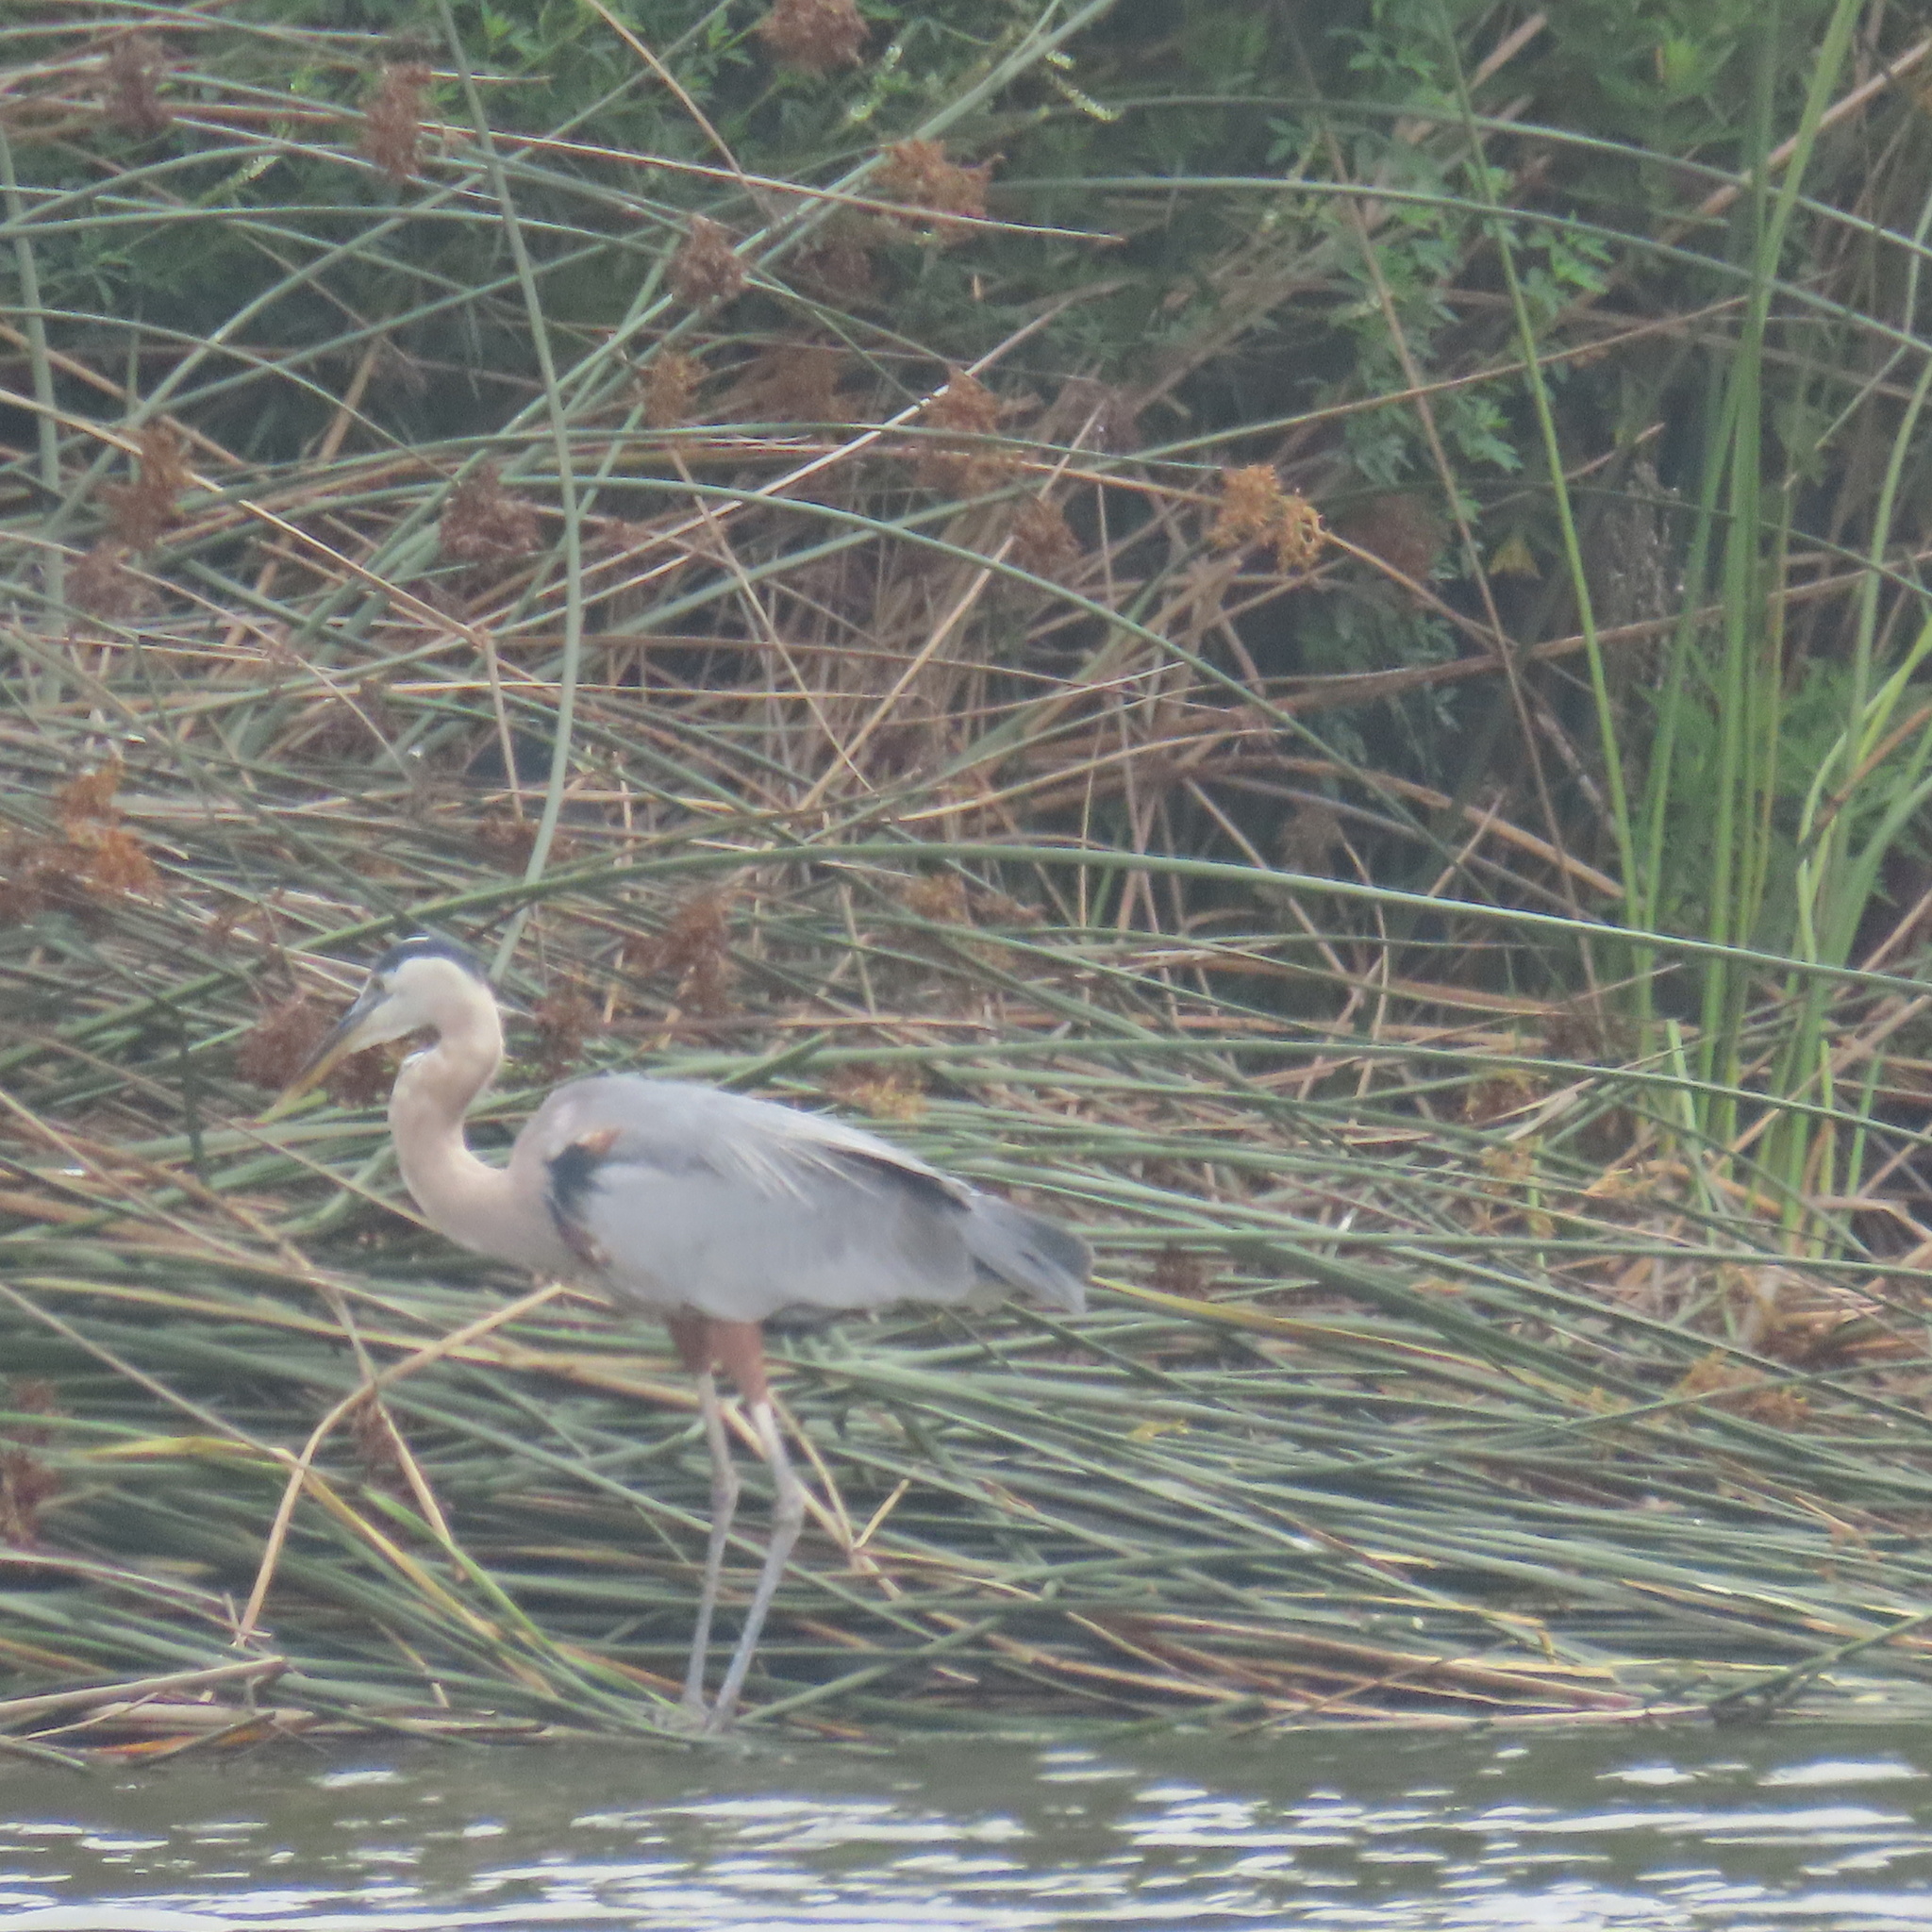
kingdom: Animalia
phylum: Chordata
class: Aves
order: Pelecaniformes
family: Ardeidae
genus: Ardea
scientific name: Ardea herodias
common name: Great blue heron
